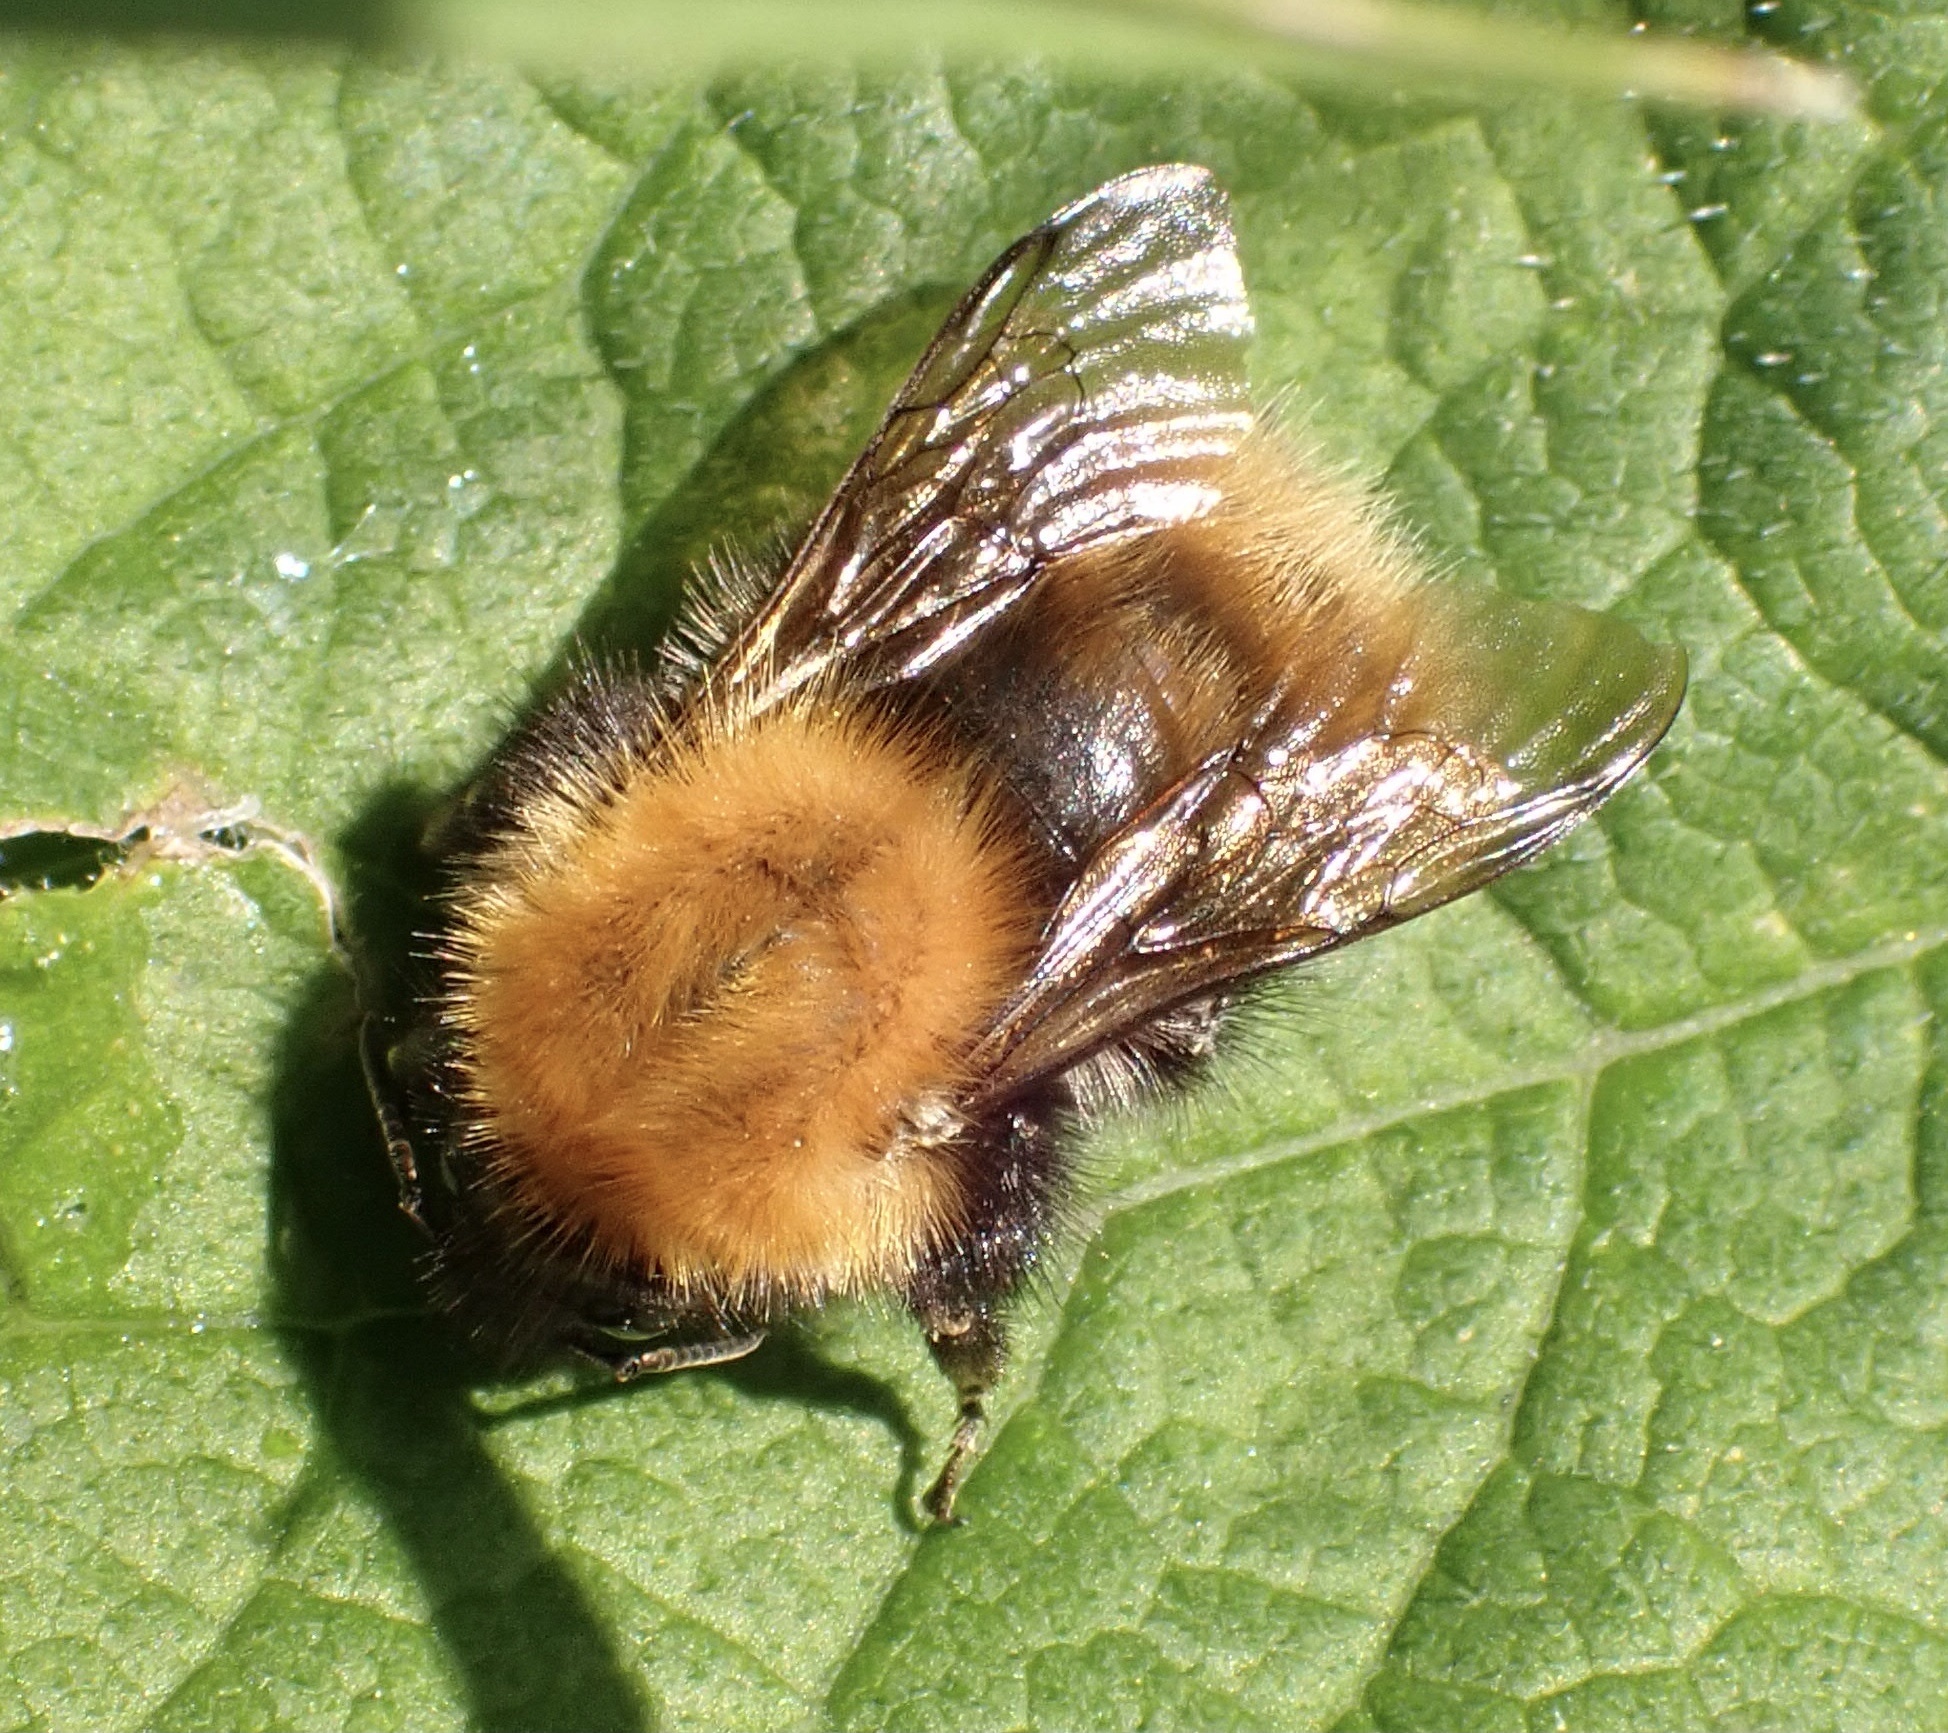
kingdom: Animalia
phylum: Arthropoda
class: Insecta
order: Hymenoptera
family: Apidae
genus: Bombus
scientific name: Bombus pascuorum
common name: Common carder bee
